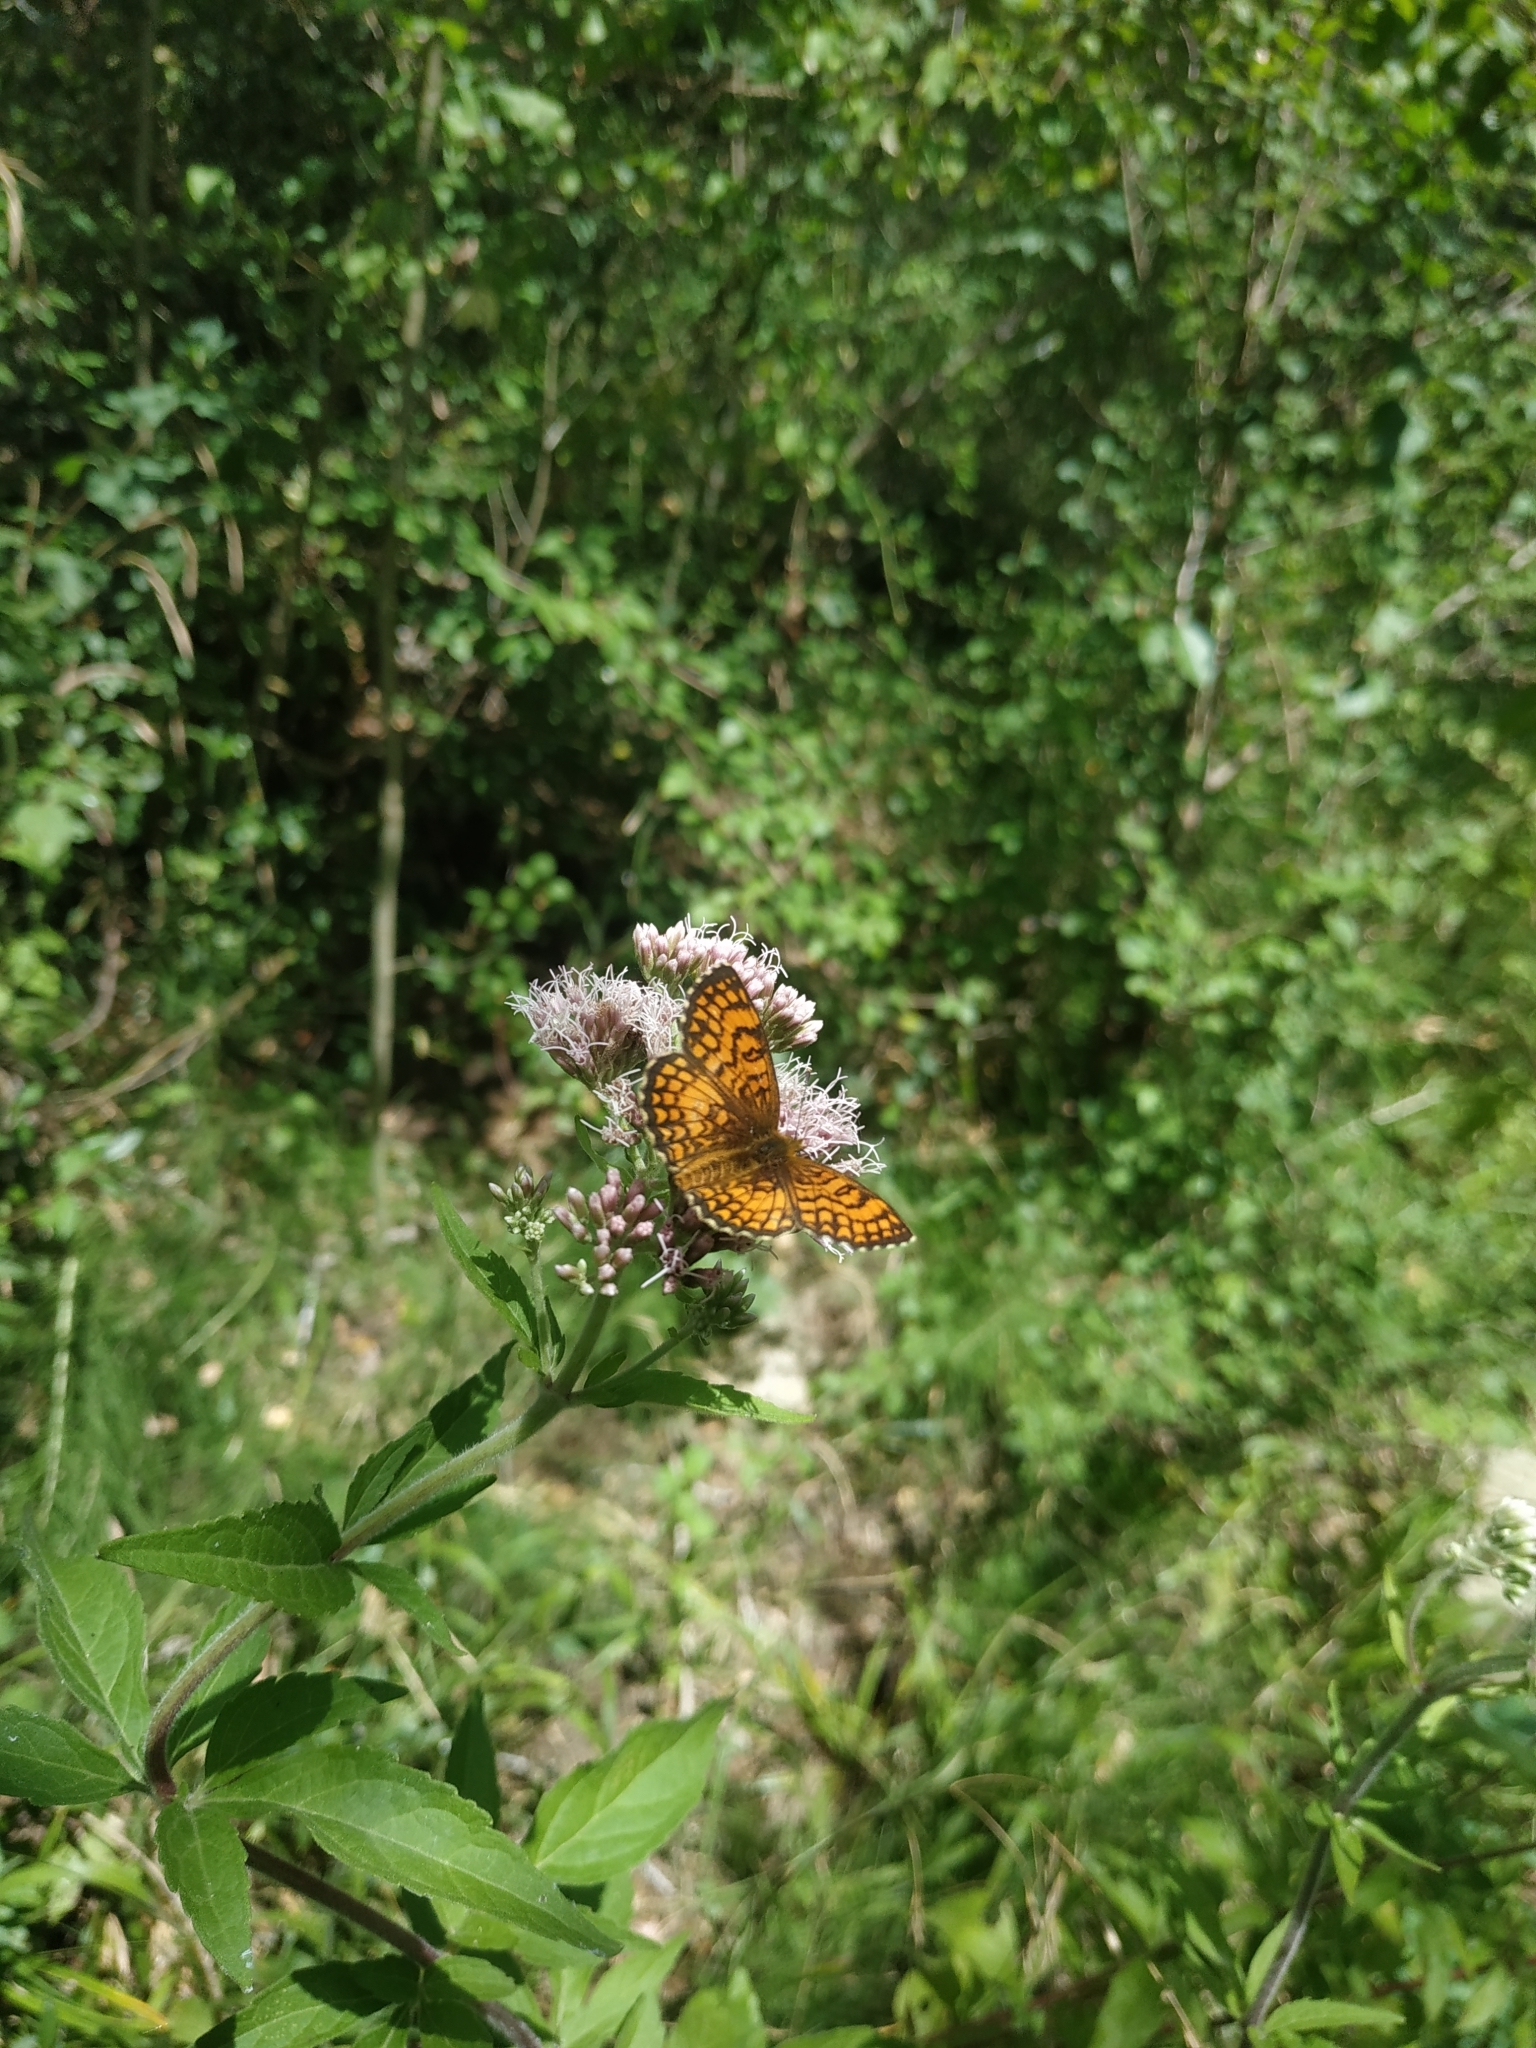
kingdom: Plantae
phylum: Tracheophyta
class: Magnoliopsida
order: Asterales
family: Asteraceae
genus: Eupatorium
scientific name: Eupatorium cannabinum
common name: Hemp-agrimony
